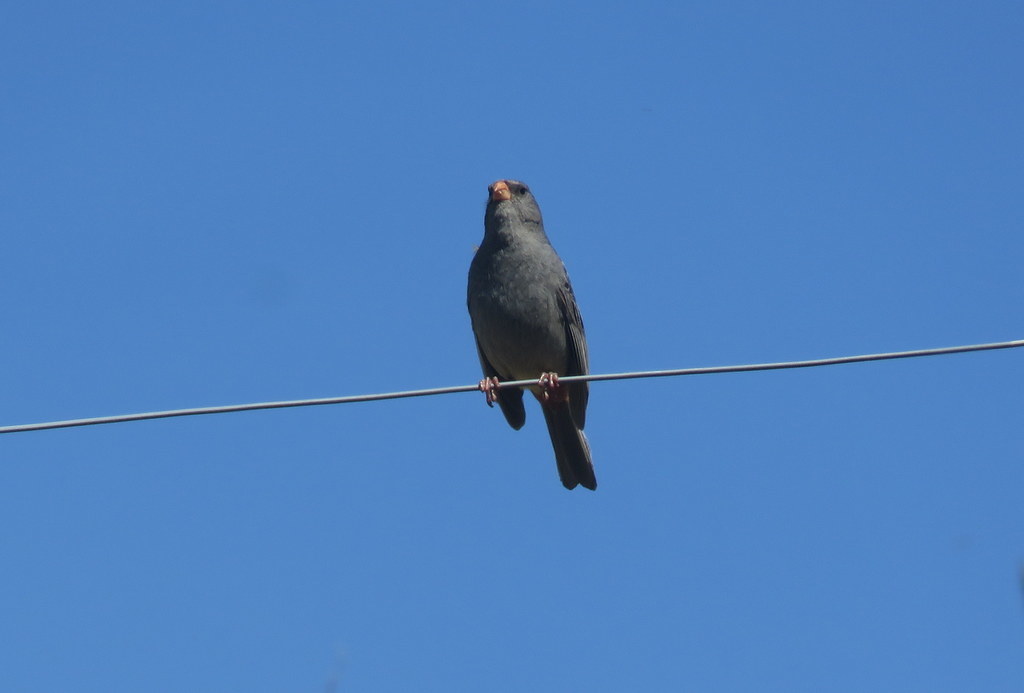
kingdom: Animalia
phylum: Chordata
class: Aves
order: Passeriformes
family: Thraupidae
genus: Catamenia
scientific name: Catamenia inornata
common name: Plain-colored seedeater
